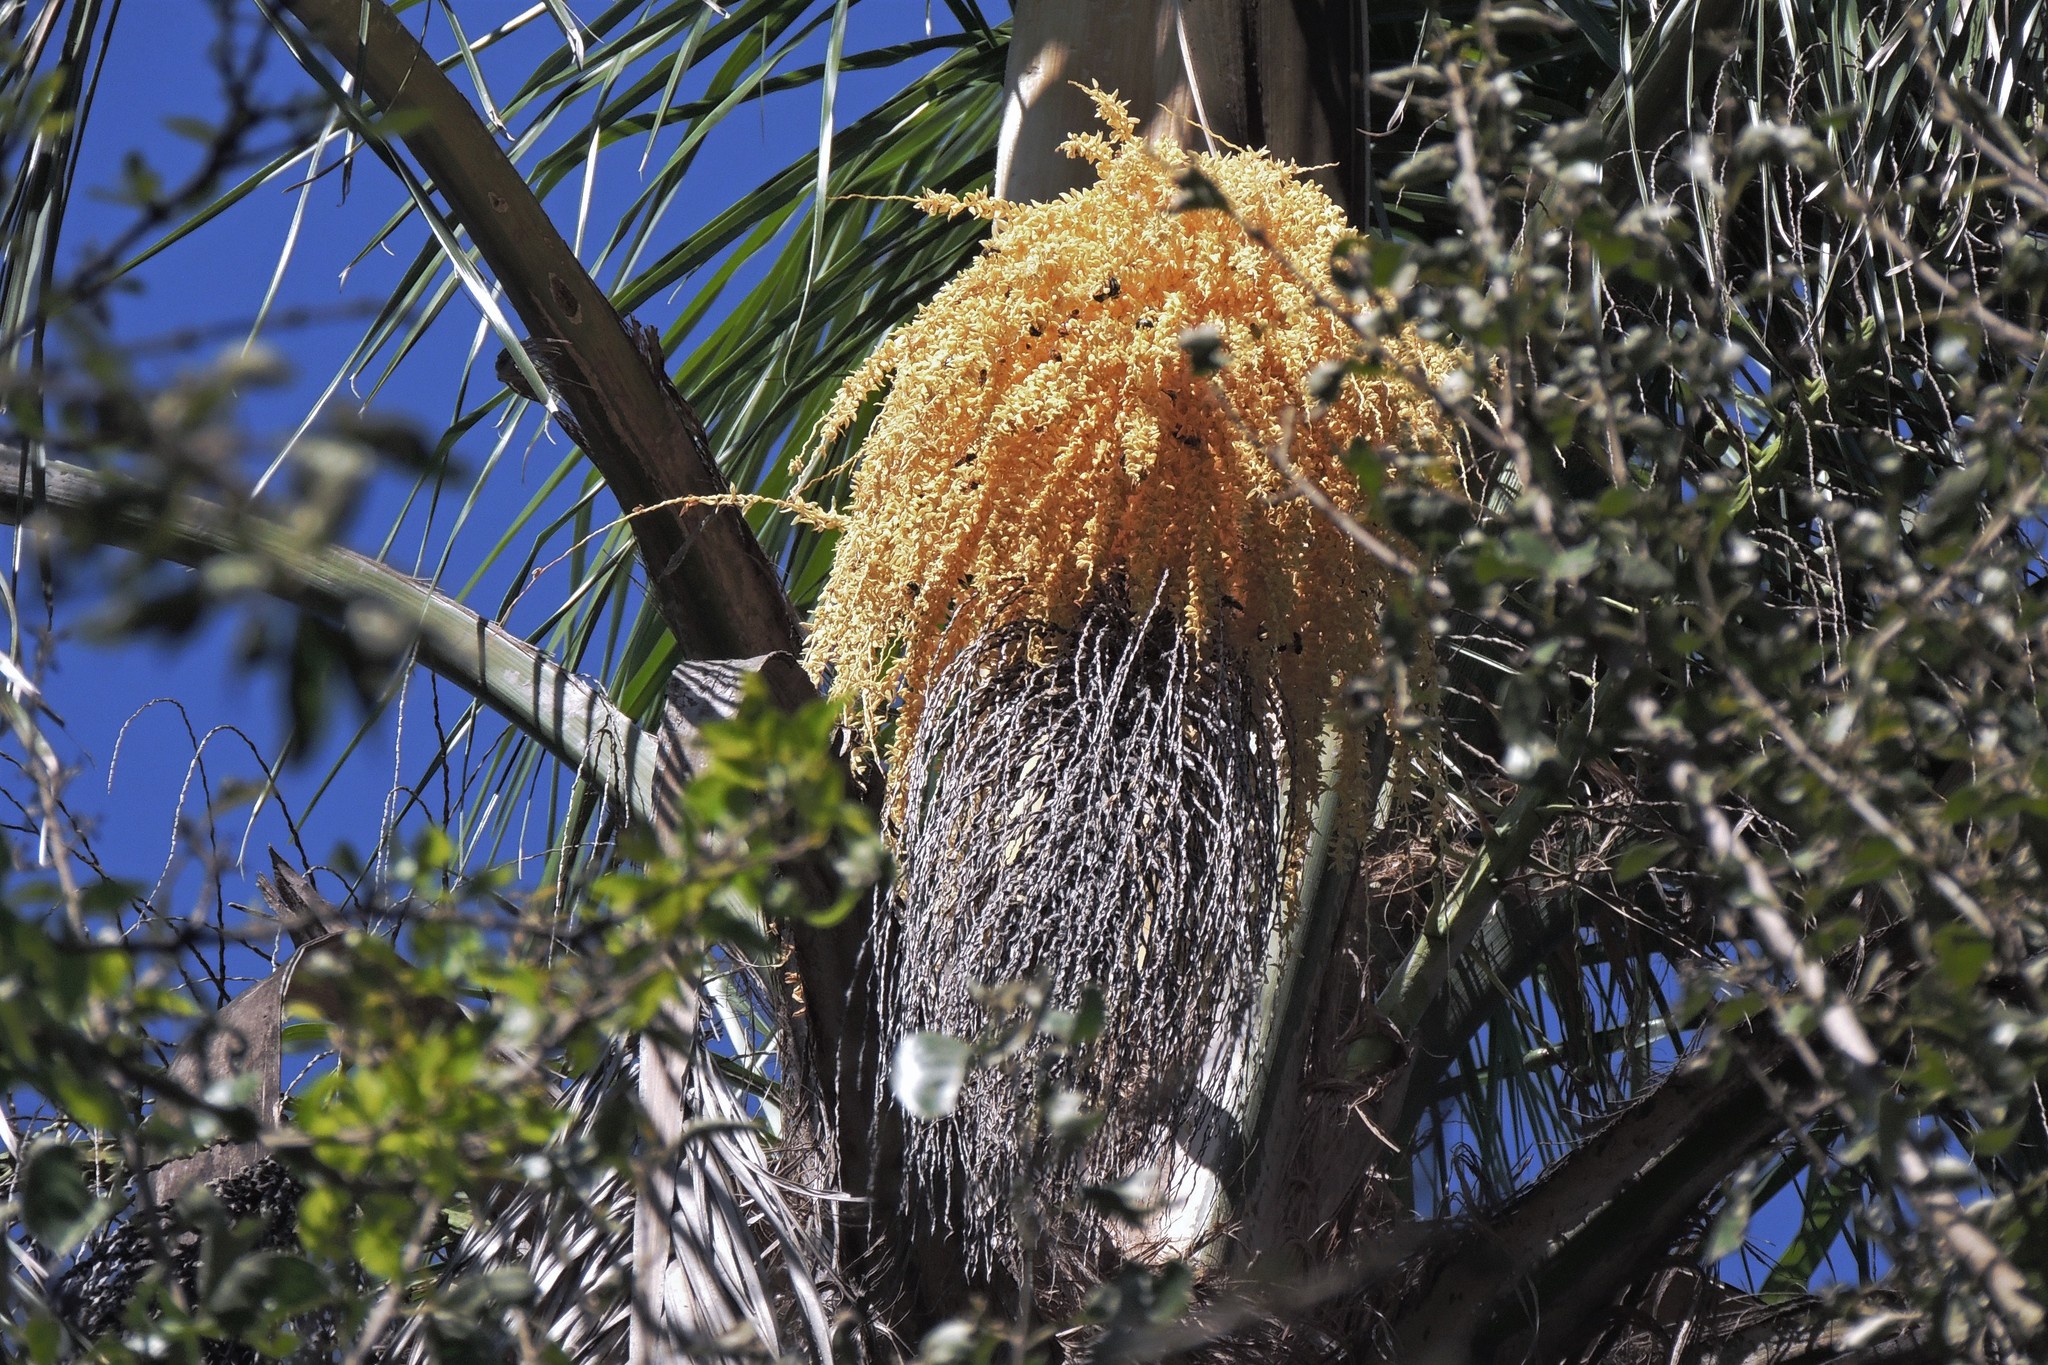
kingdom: Plantae
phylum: Tracheophyta
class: Liliopsida
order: Arecales
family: Arecaceae
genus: Syagrus
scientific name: Syagrus romanzoffiana
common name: Queen palm
